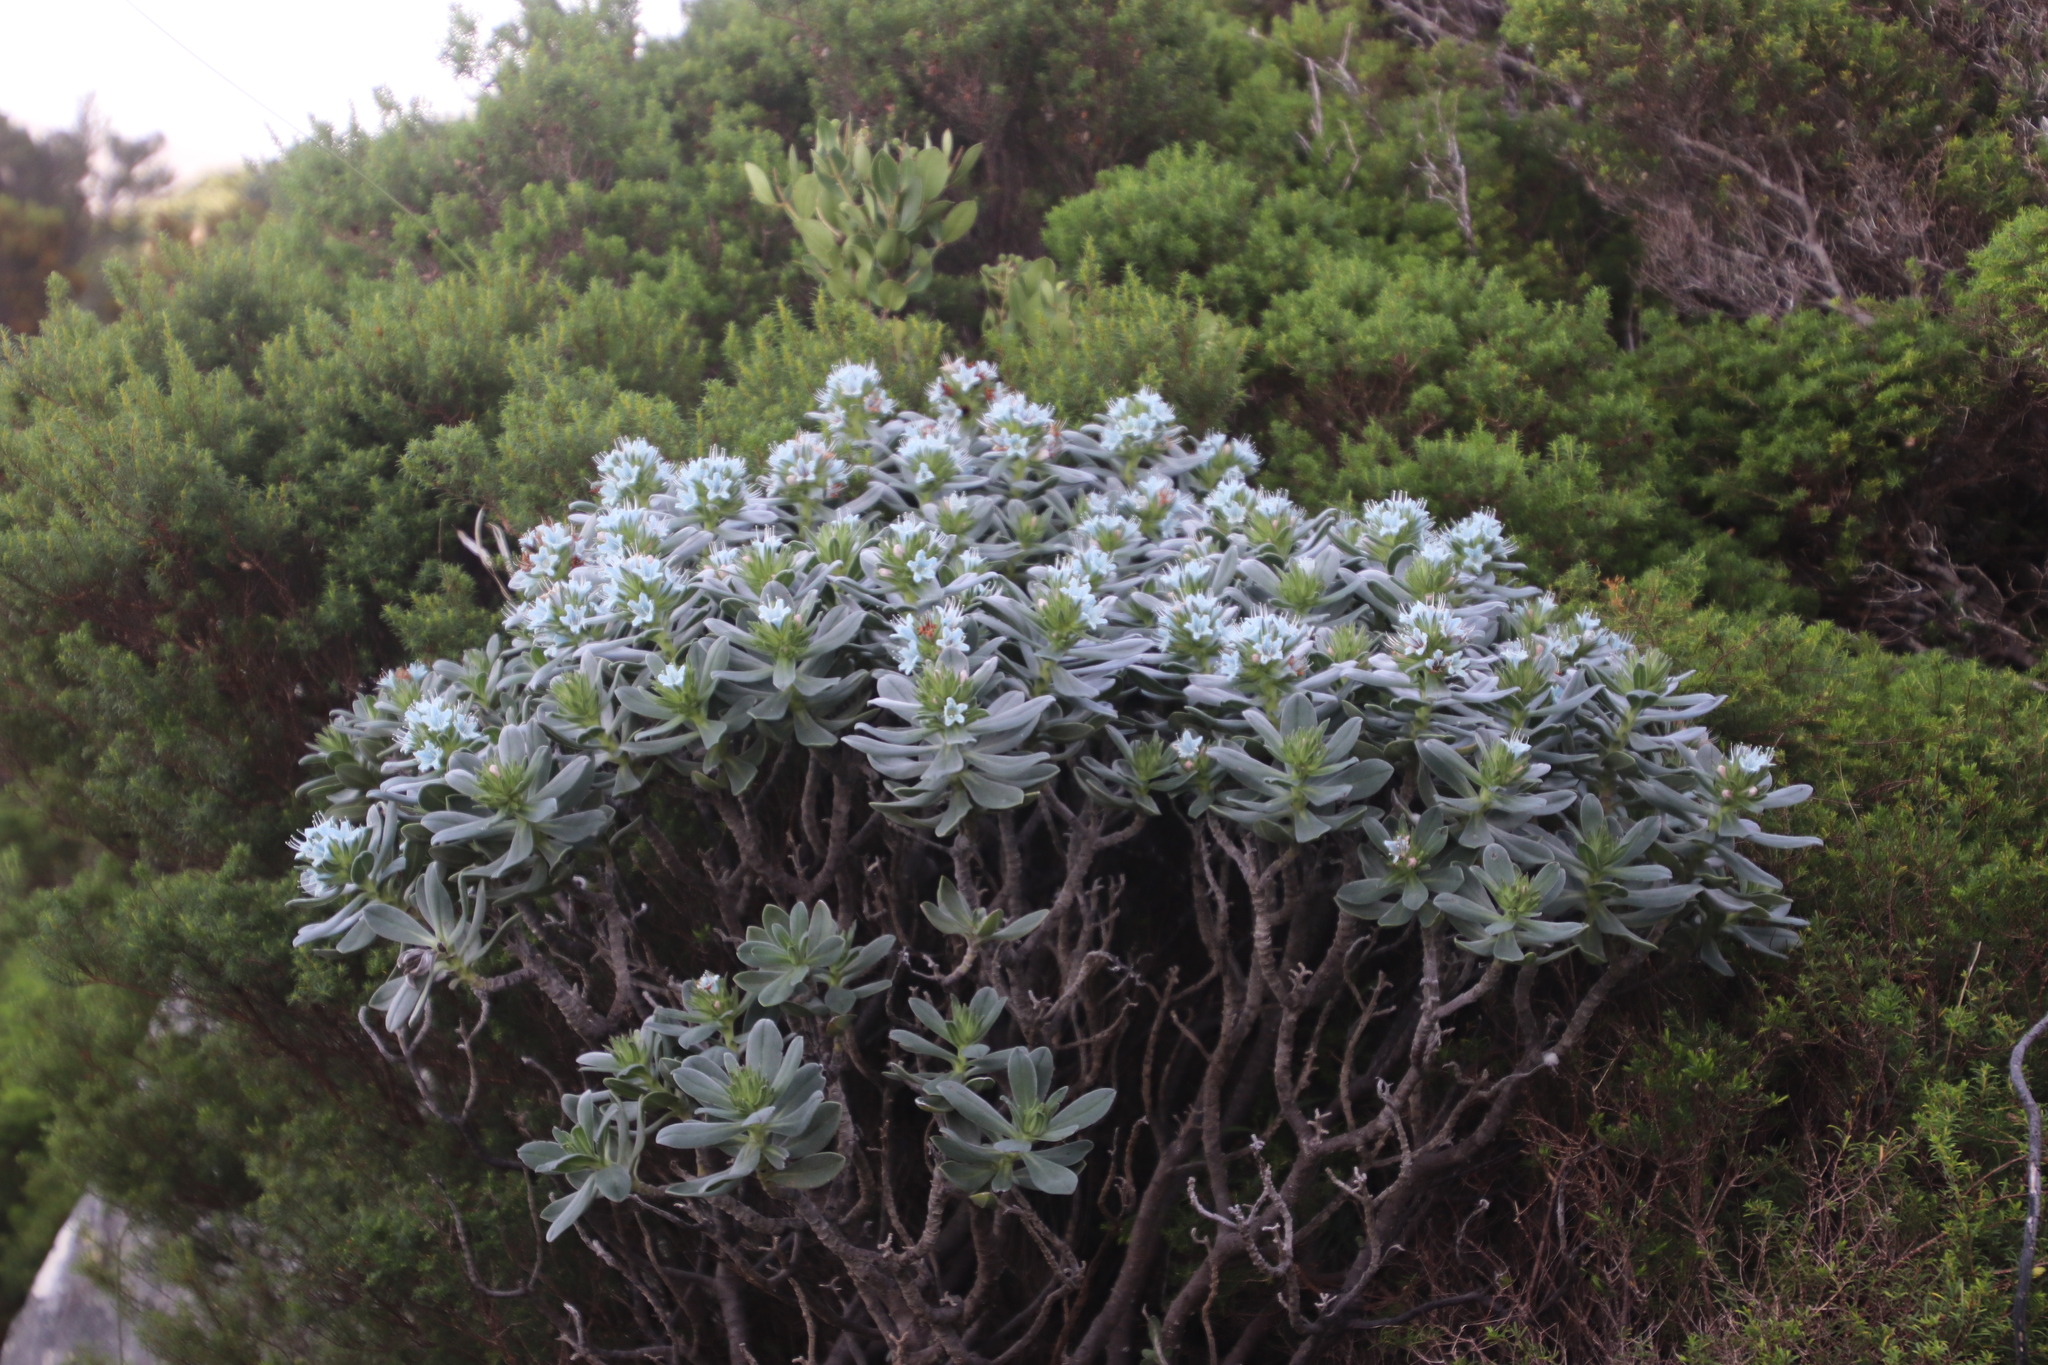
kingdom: Plantae
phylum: Tracheophyta
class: Magnoliopsida
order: Boraginales
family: Boraginaceae
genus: Lobostemon
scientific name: Lobostemon montanus
